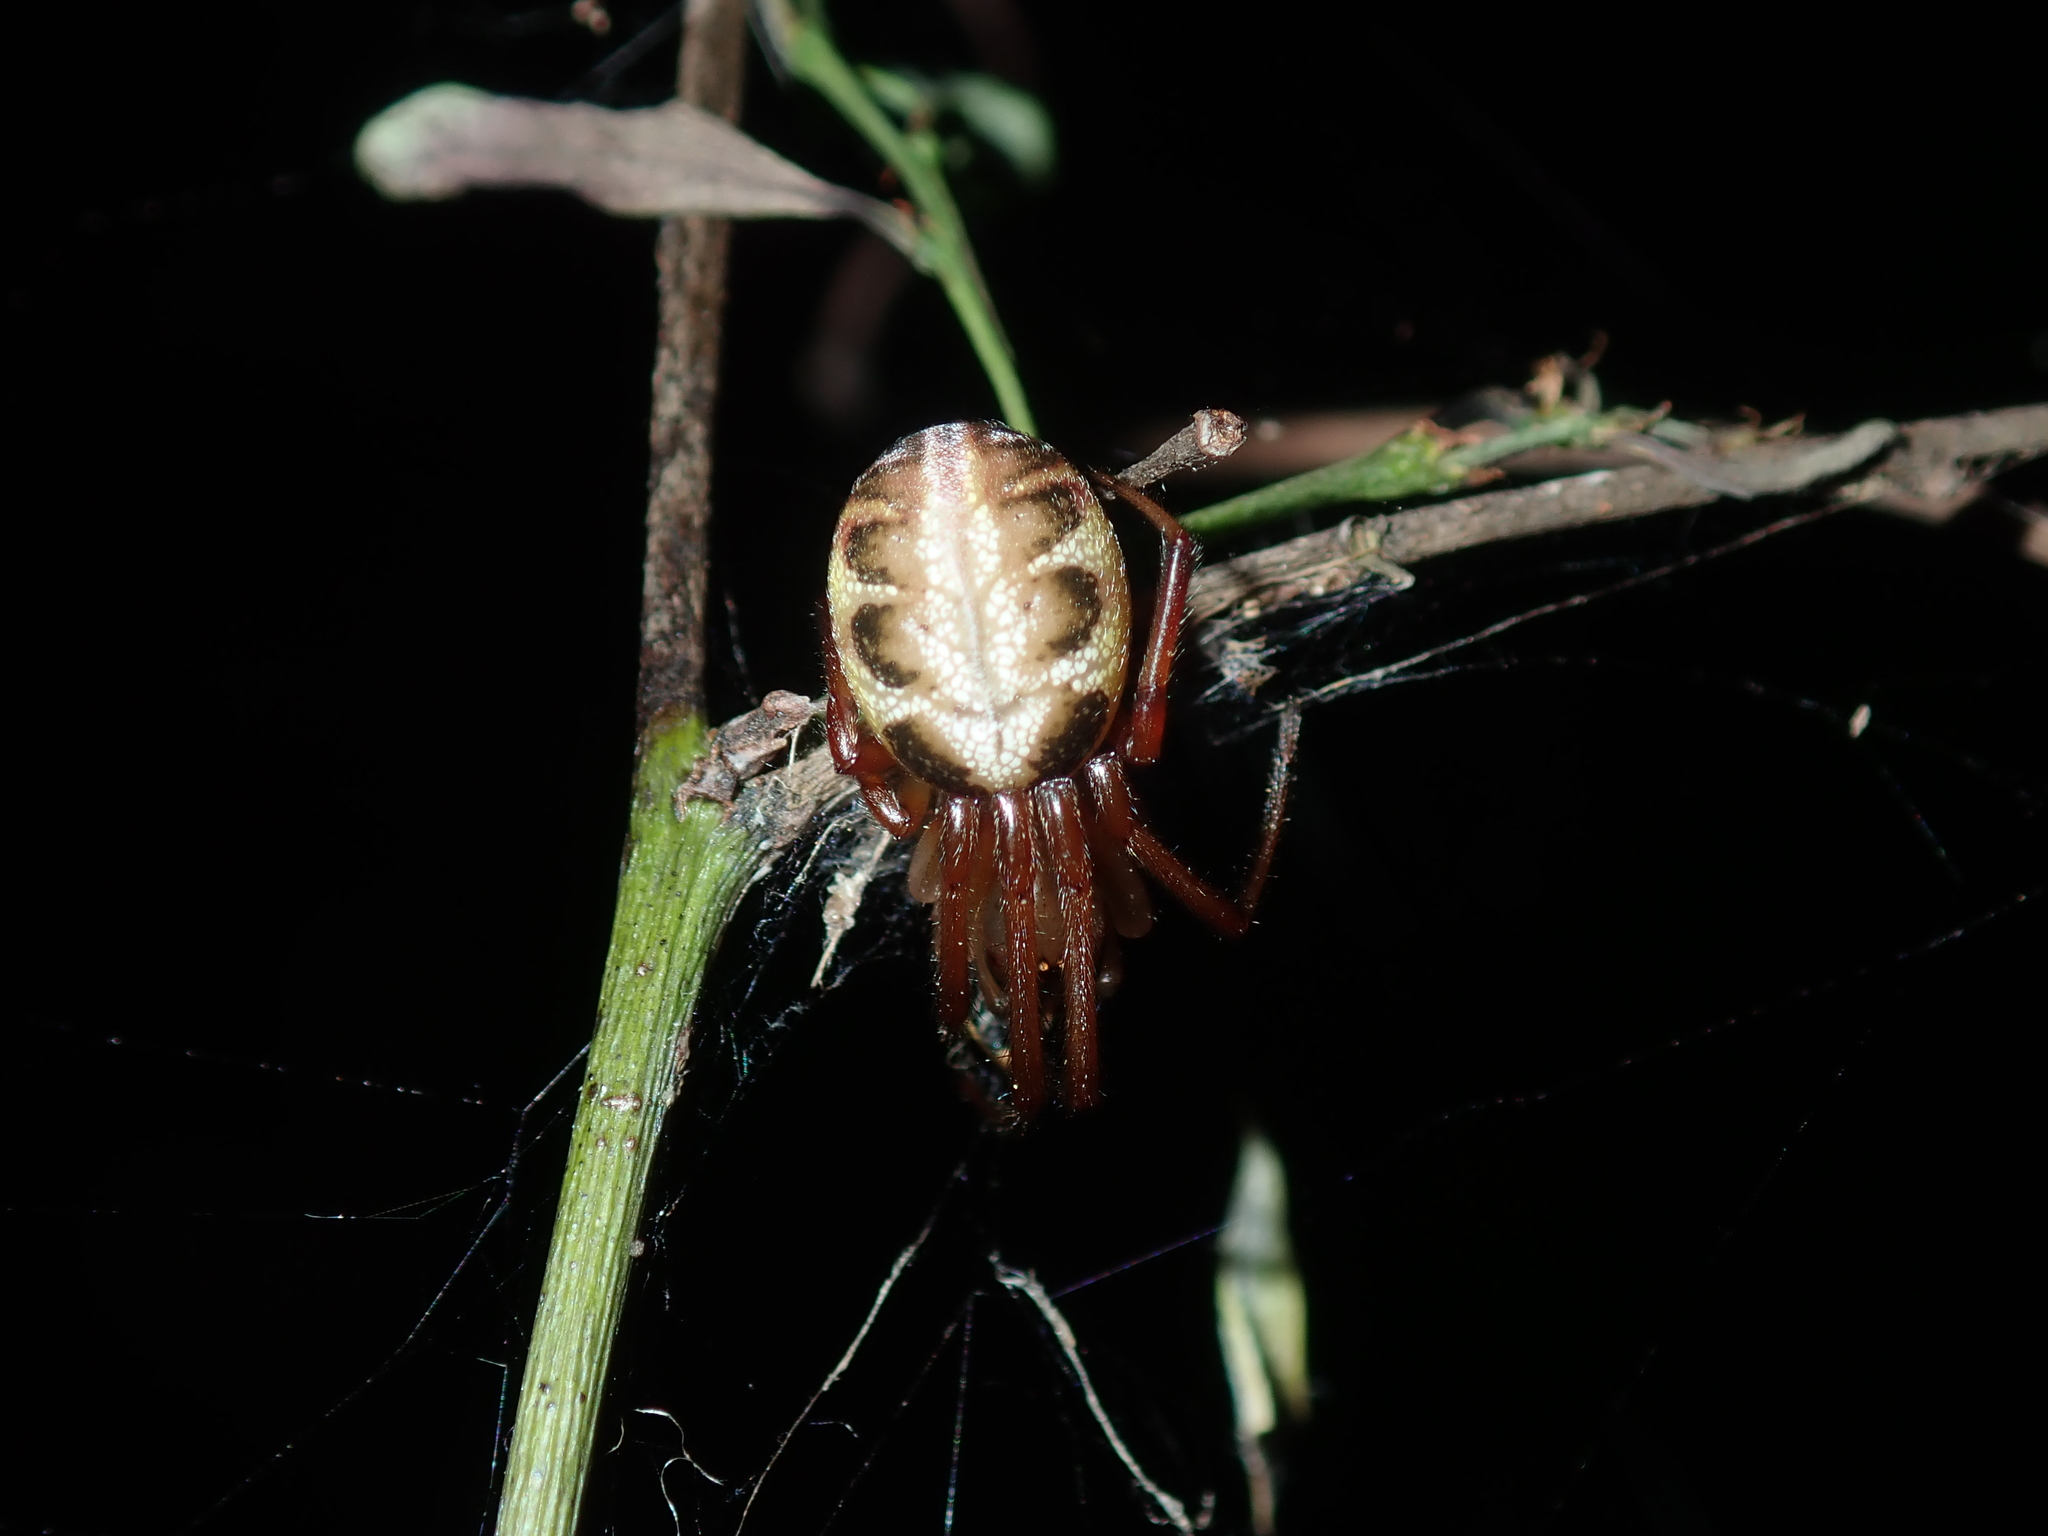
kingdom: Animalia
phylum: Arthropoda
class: Arachnida
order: Araneae
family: Araneidae
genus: Phonognatha
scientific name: Phonognatha graeffei
